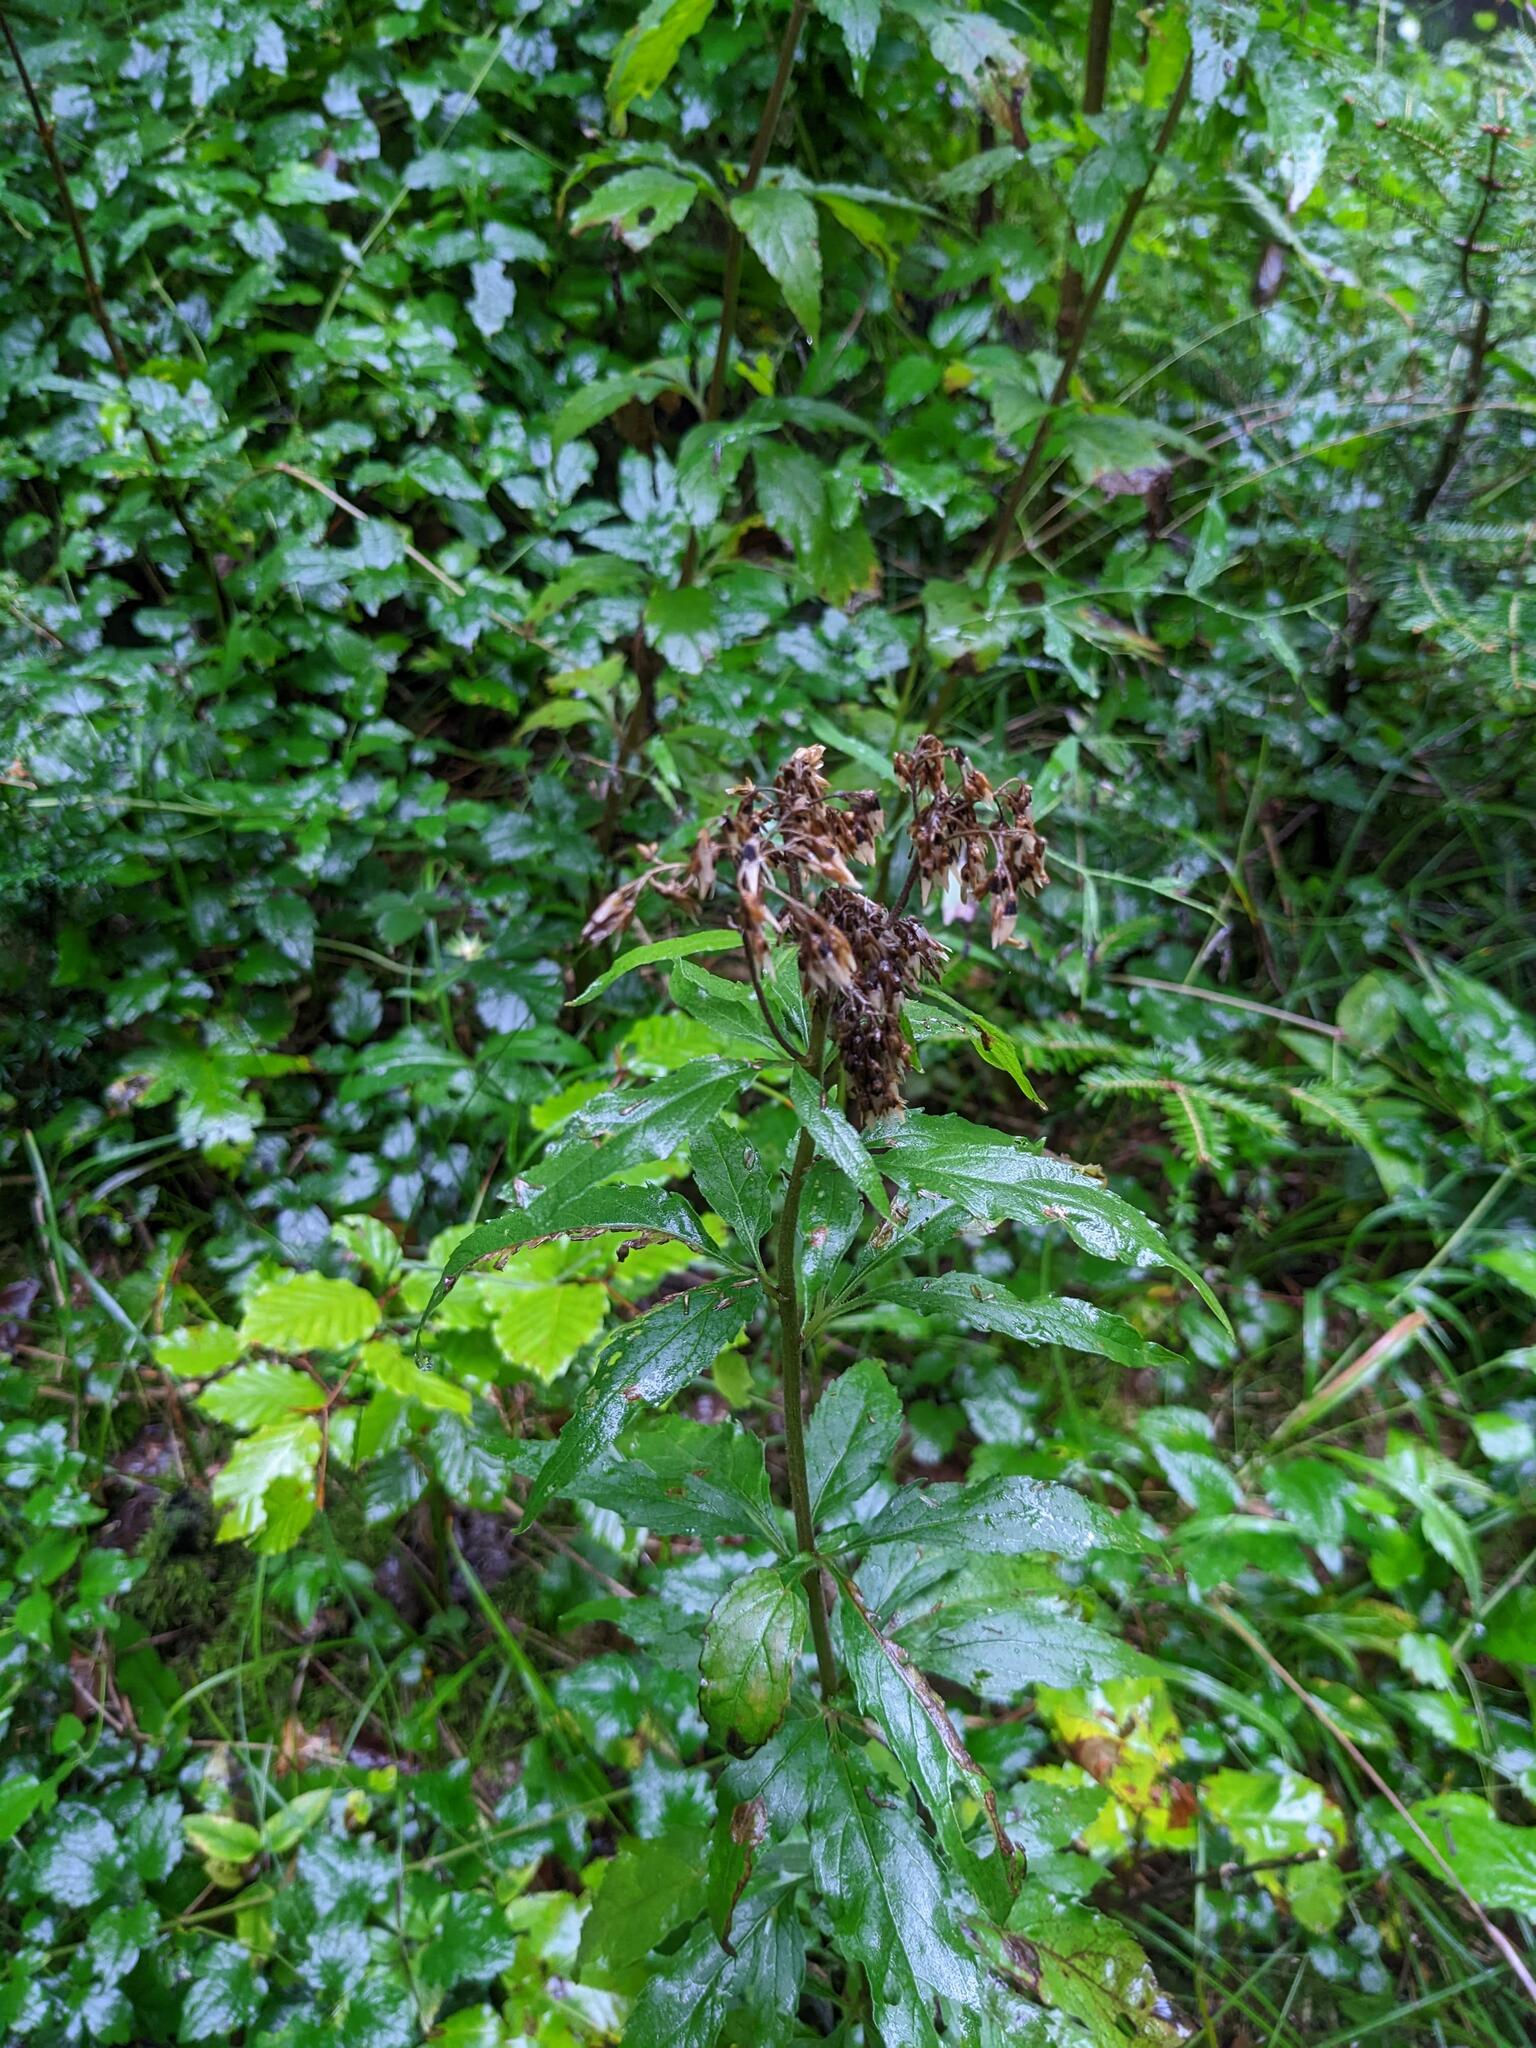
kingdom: Plantae
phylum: Tracheophyta
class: Magnoliopsida
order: Asterales
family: Asteraceae
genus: Eupatorium
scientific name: Eupatorium cannabinum
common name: Hemp-agrimony
